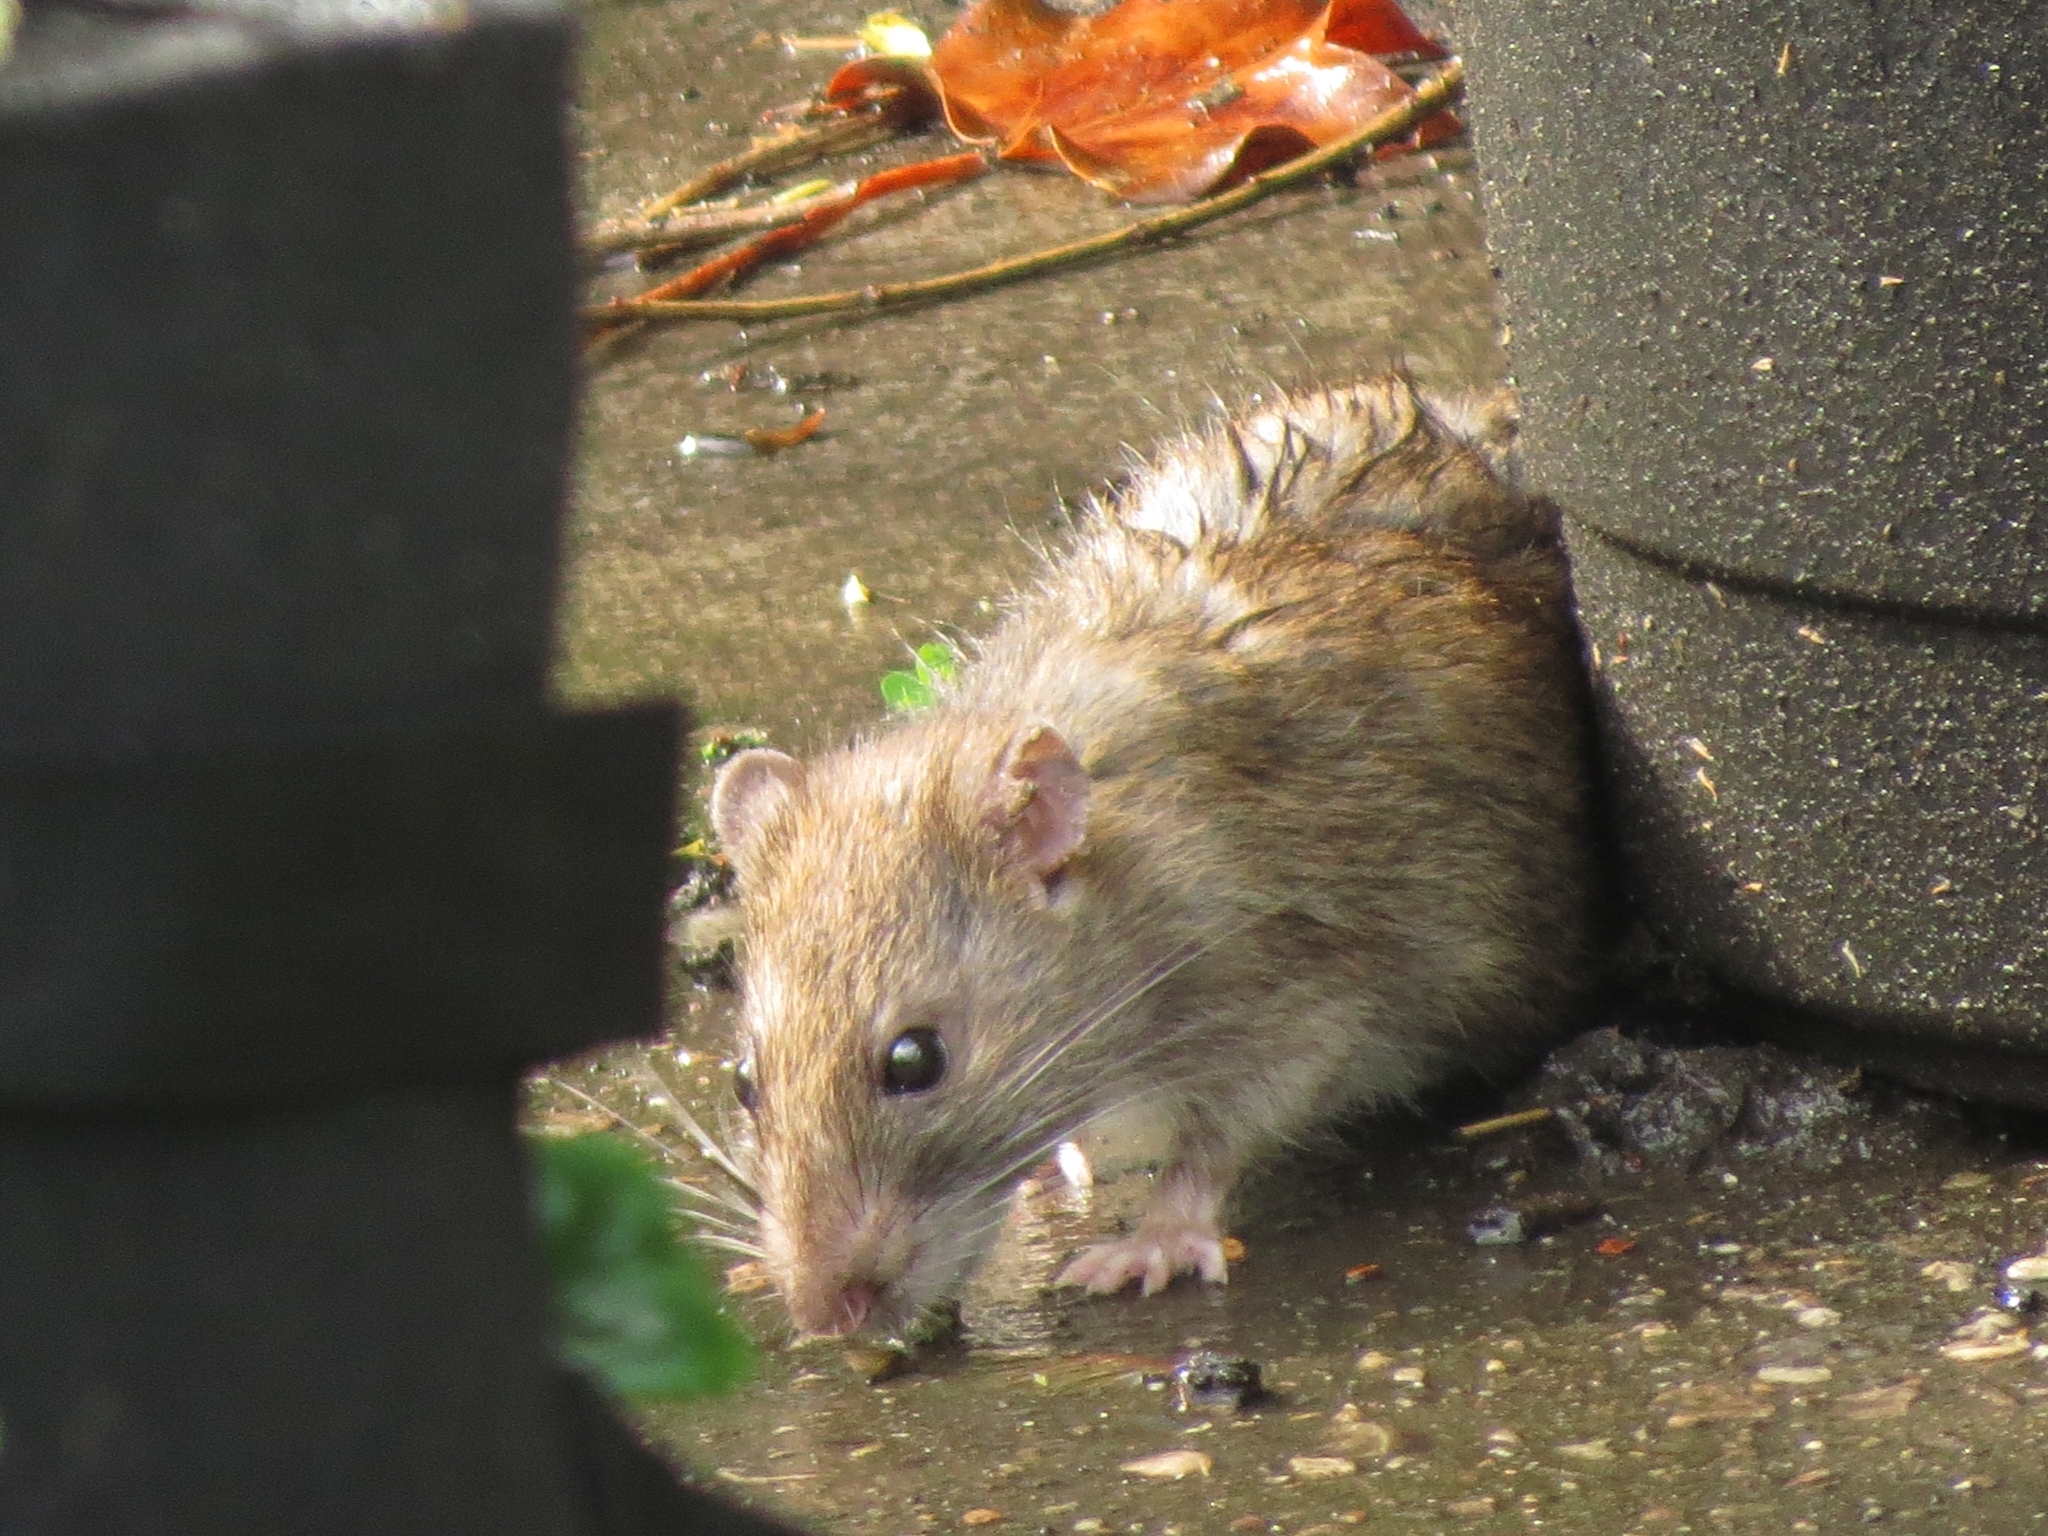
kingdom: Animalia
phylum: Chordata
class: Mammalia
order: Rodentia
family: Muridae
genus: Rattus
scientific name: Rattus norvegicus
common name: Brown rat
